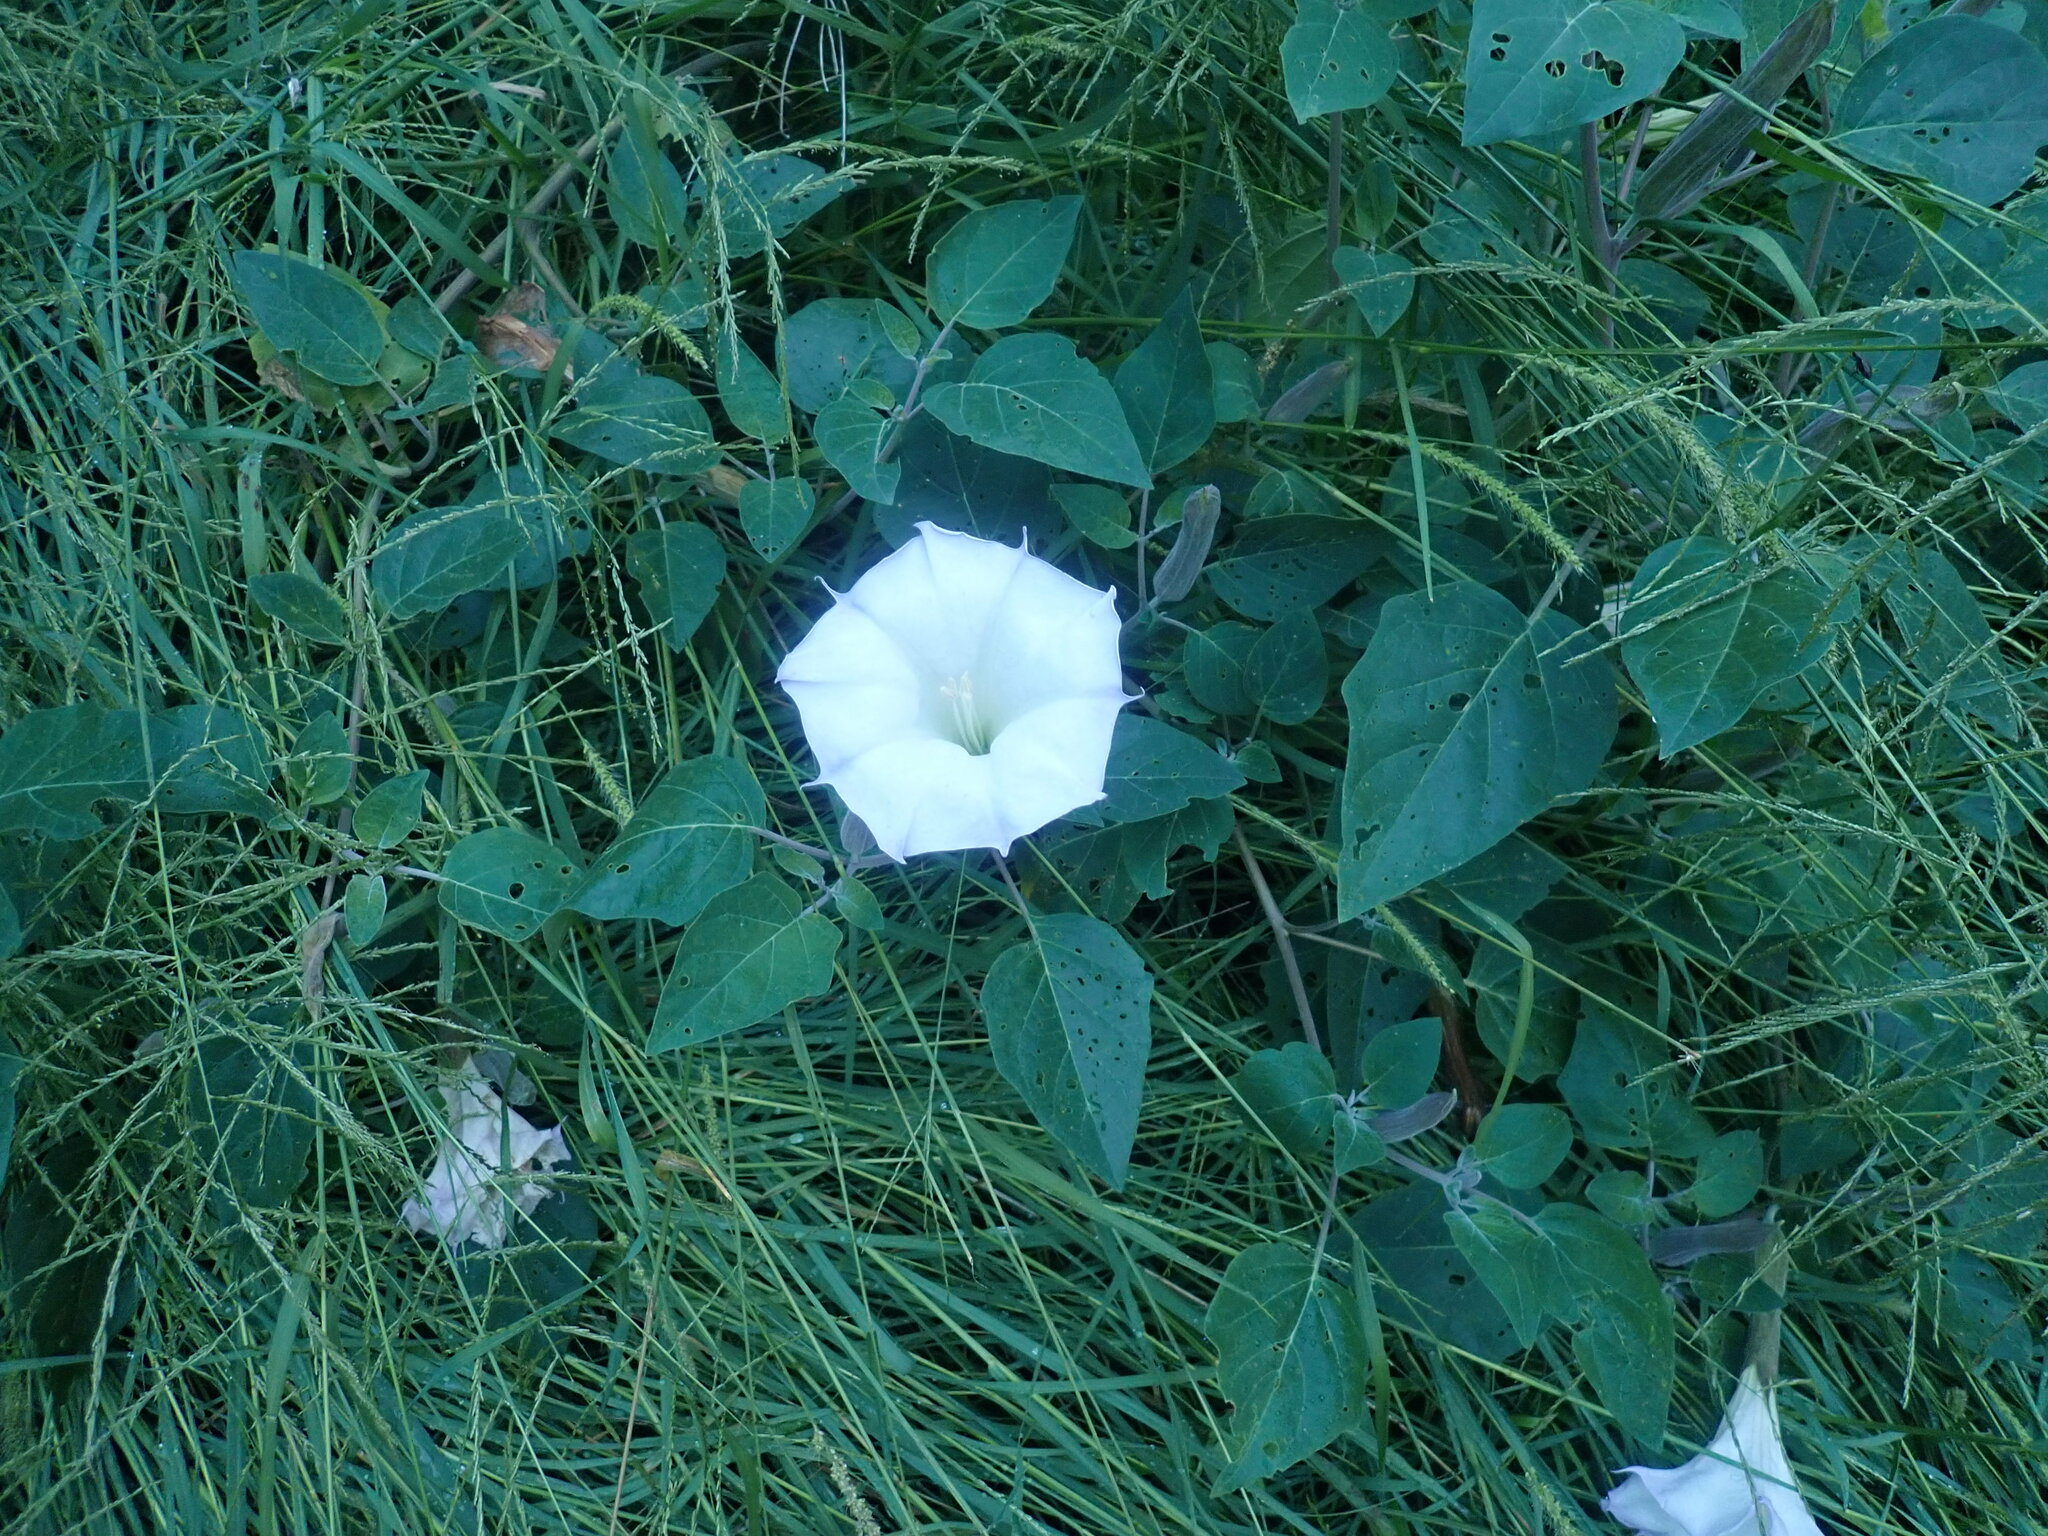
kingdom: Plantae
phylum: Tracheophyta
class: Magnoliopsida
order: Solanales
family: Solanaceae
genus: Datura
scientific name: Datura wrightii
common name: Sacred thorn-apple
